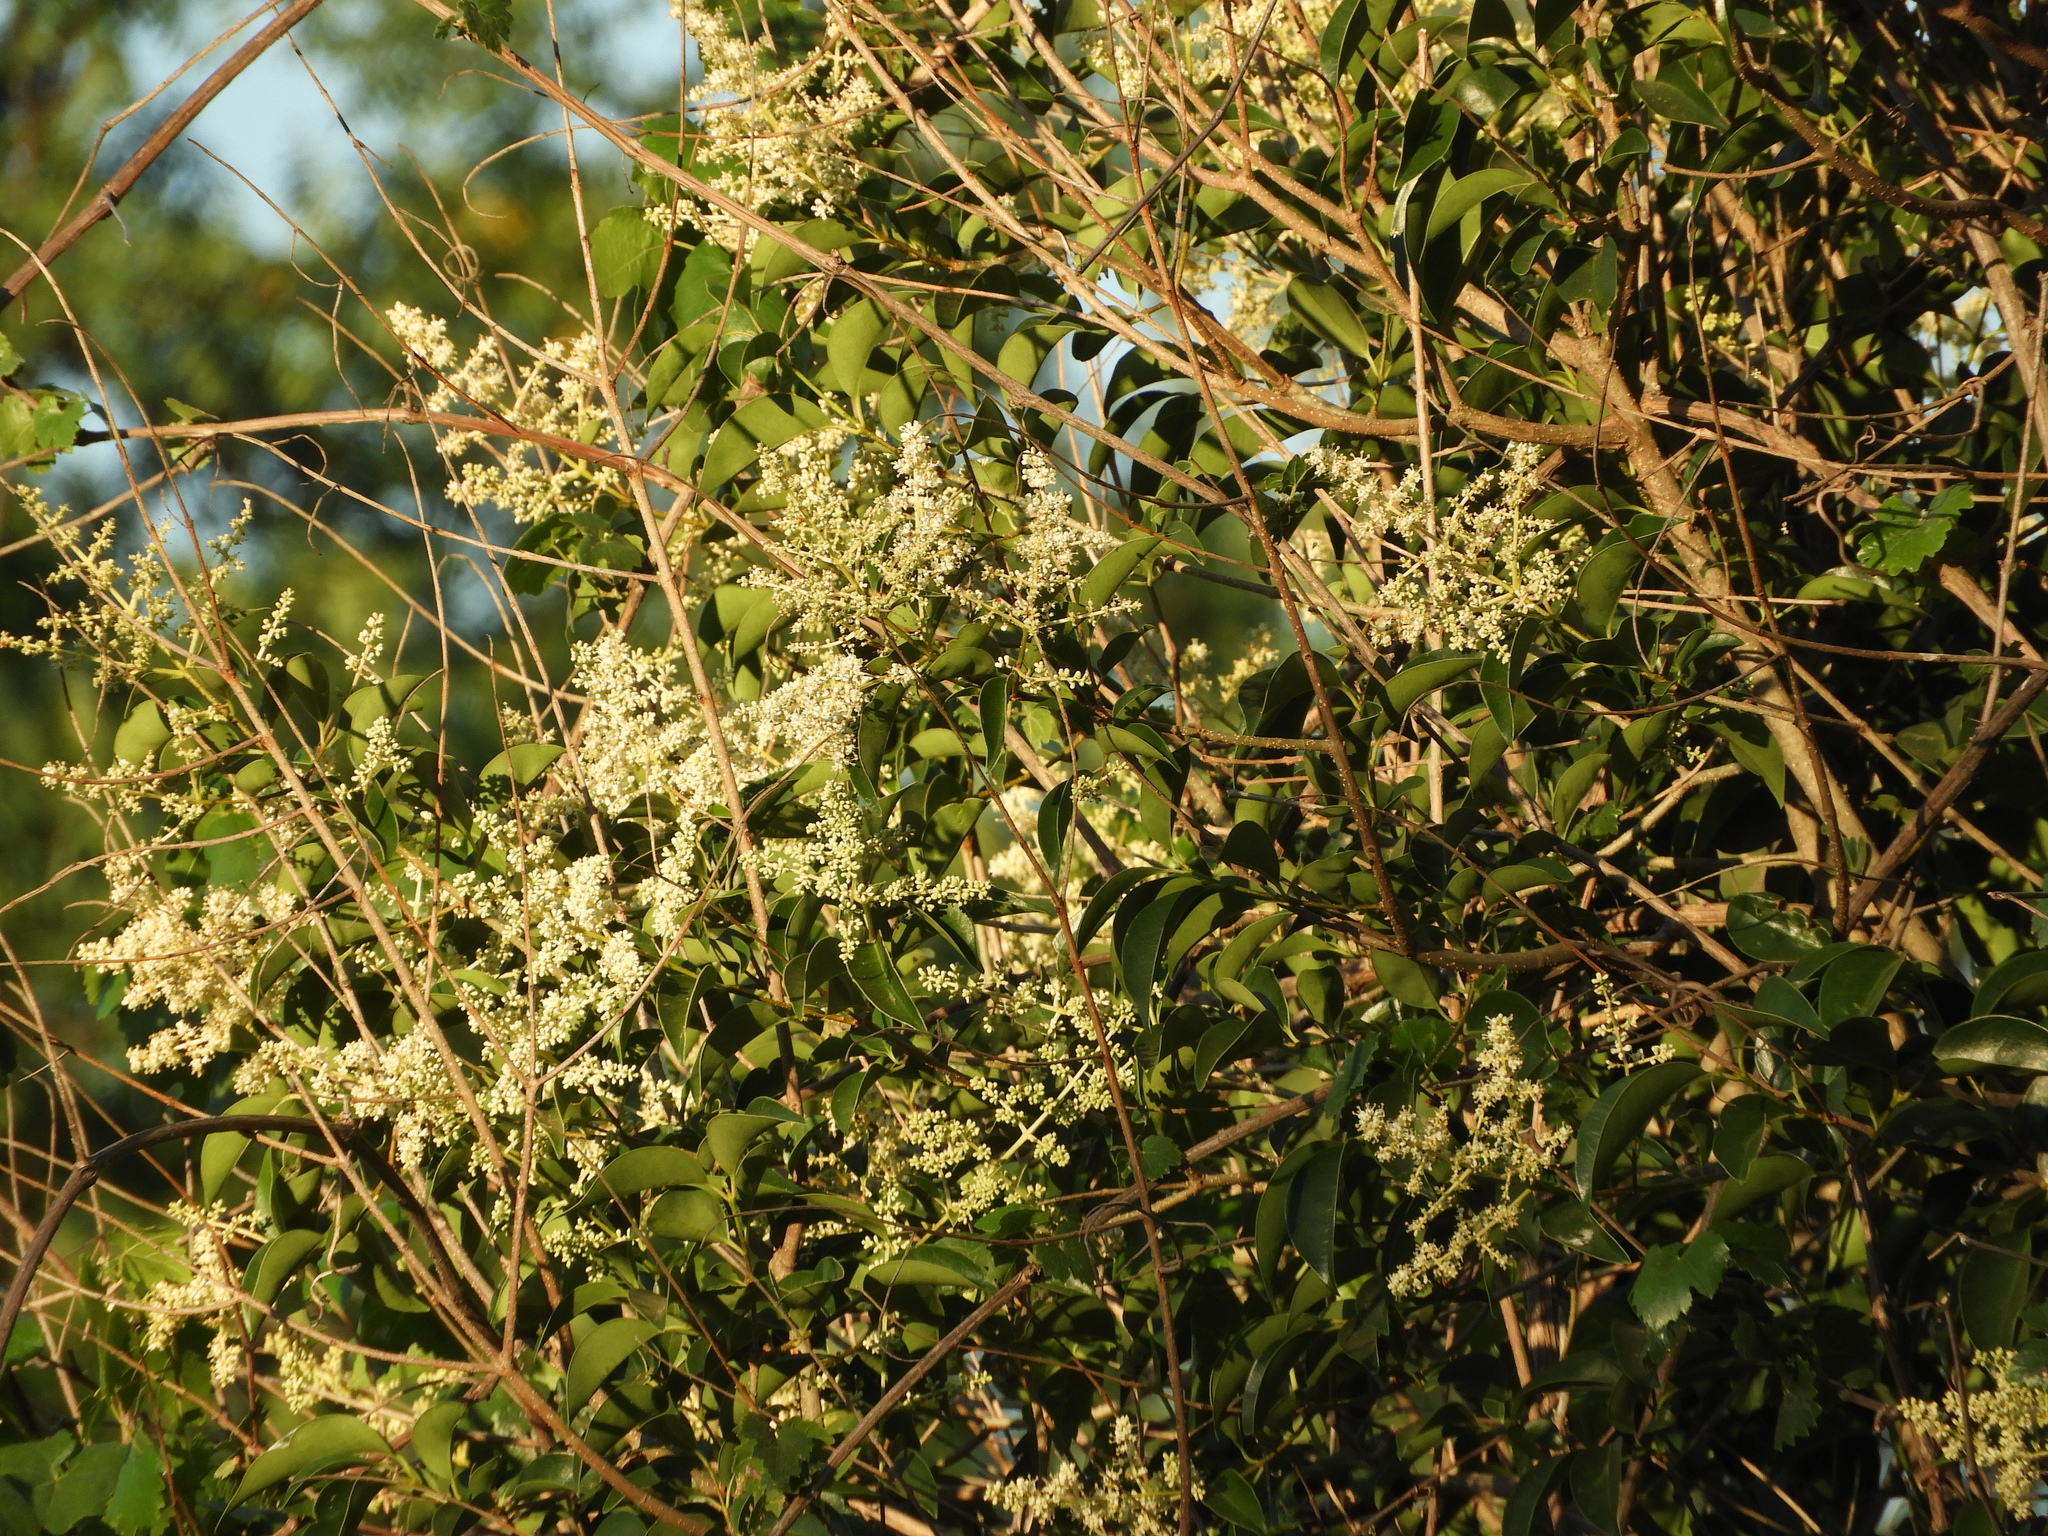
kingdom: Plantae
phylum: Tracheophyta
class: Magnoliopsida
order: Lamiales
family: Oleaceae
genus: Ligustrum
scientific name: Ligustrum lucidum
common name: Glossy privet
